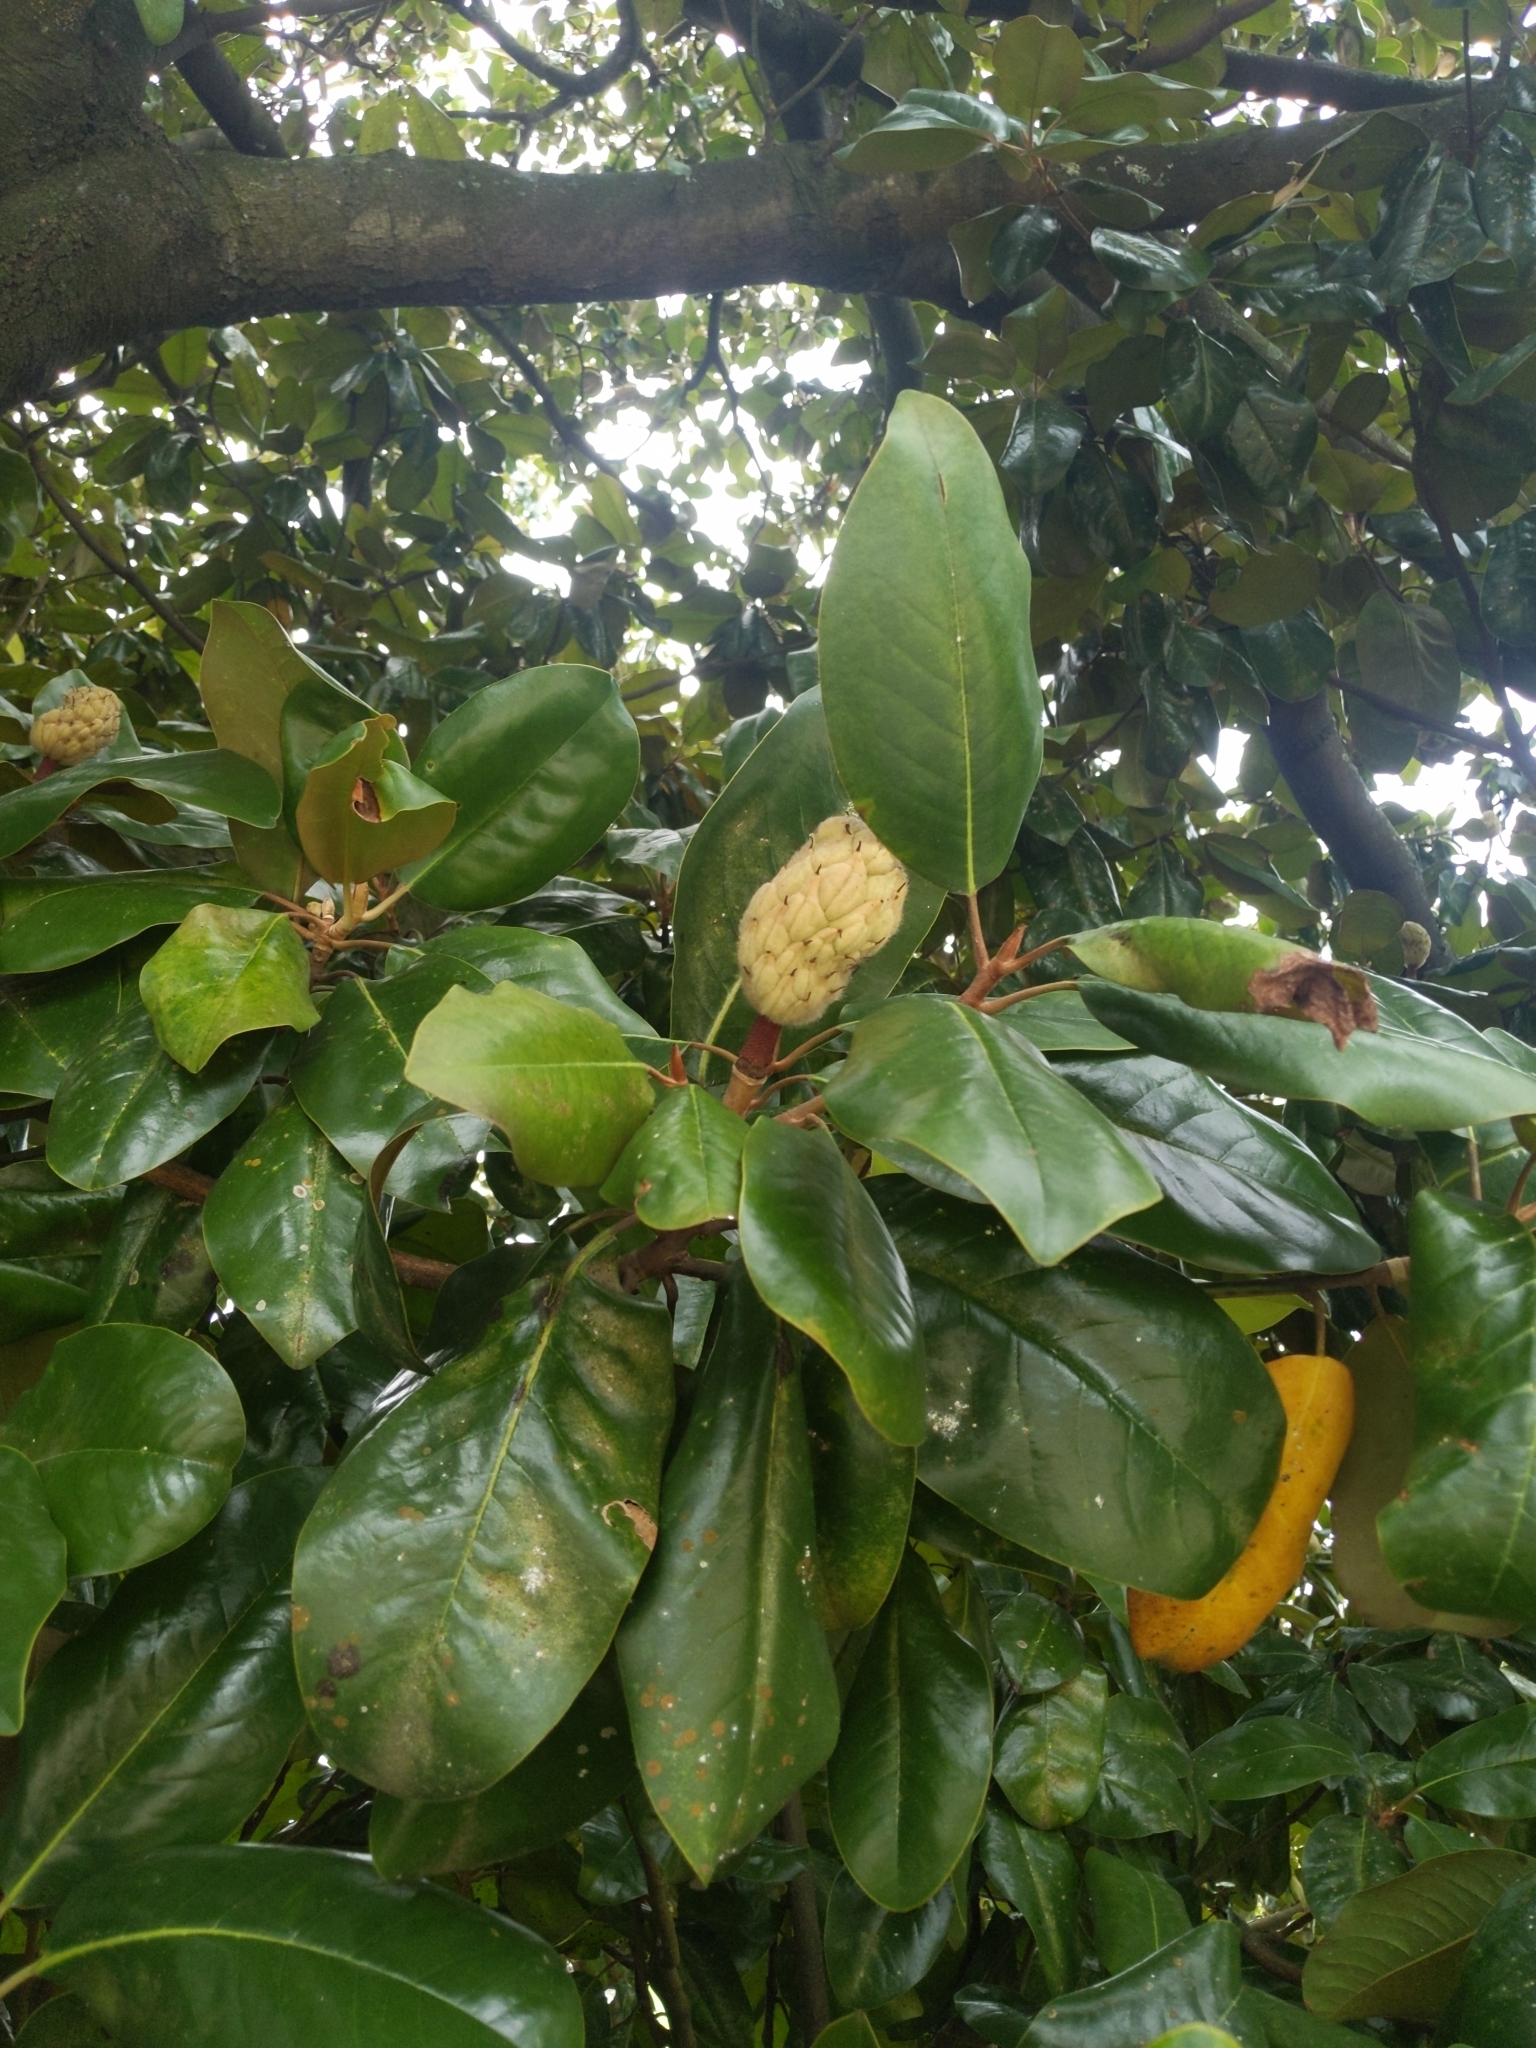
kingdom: Plantae
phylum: Tracheophyta
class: Magnoliopsida
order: Magnoliales
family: Magnoliaceae
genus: Magnolia
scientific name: Magnolia grandiflora
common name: Southern magnolia
